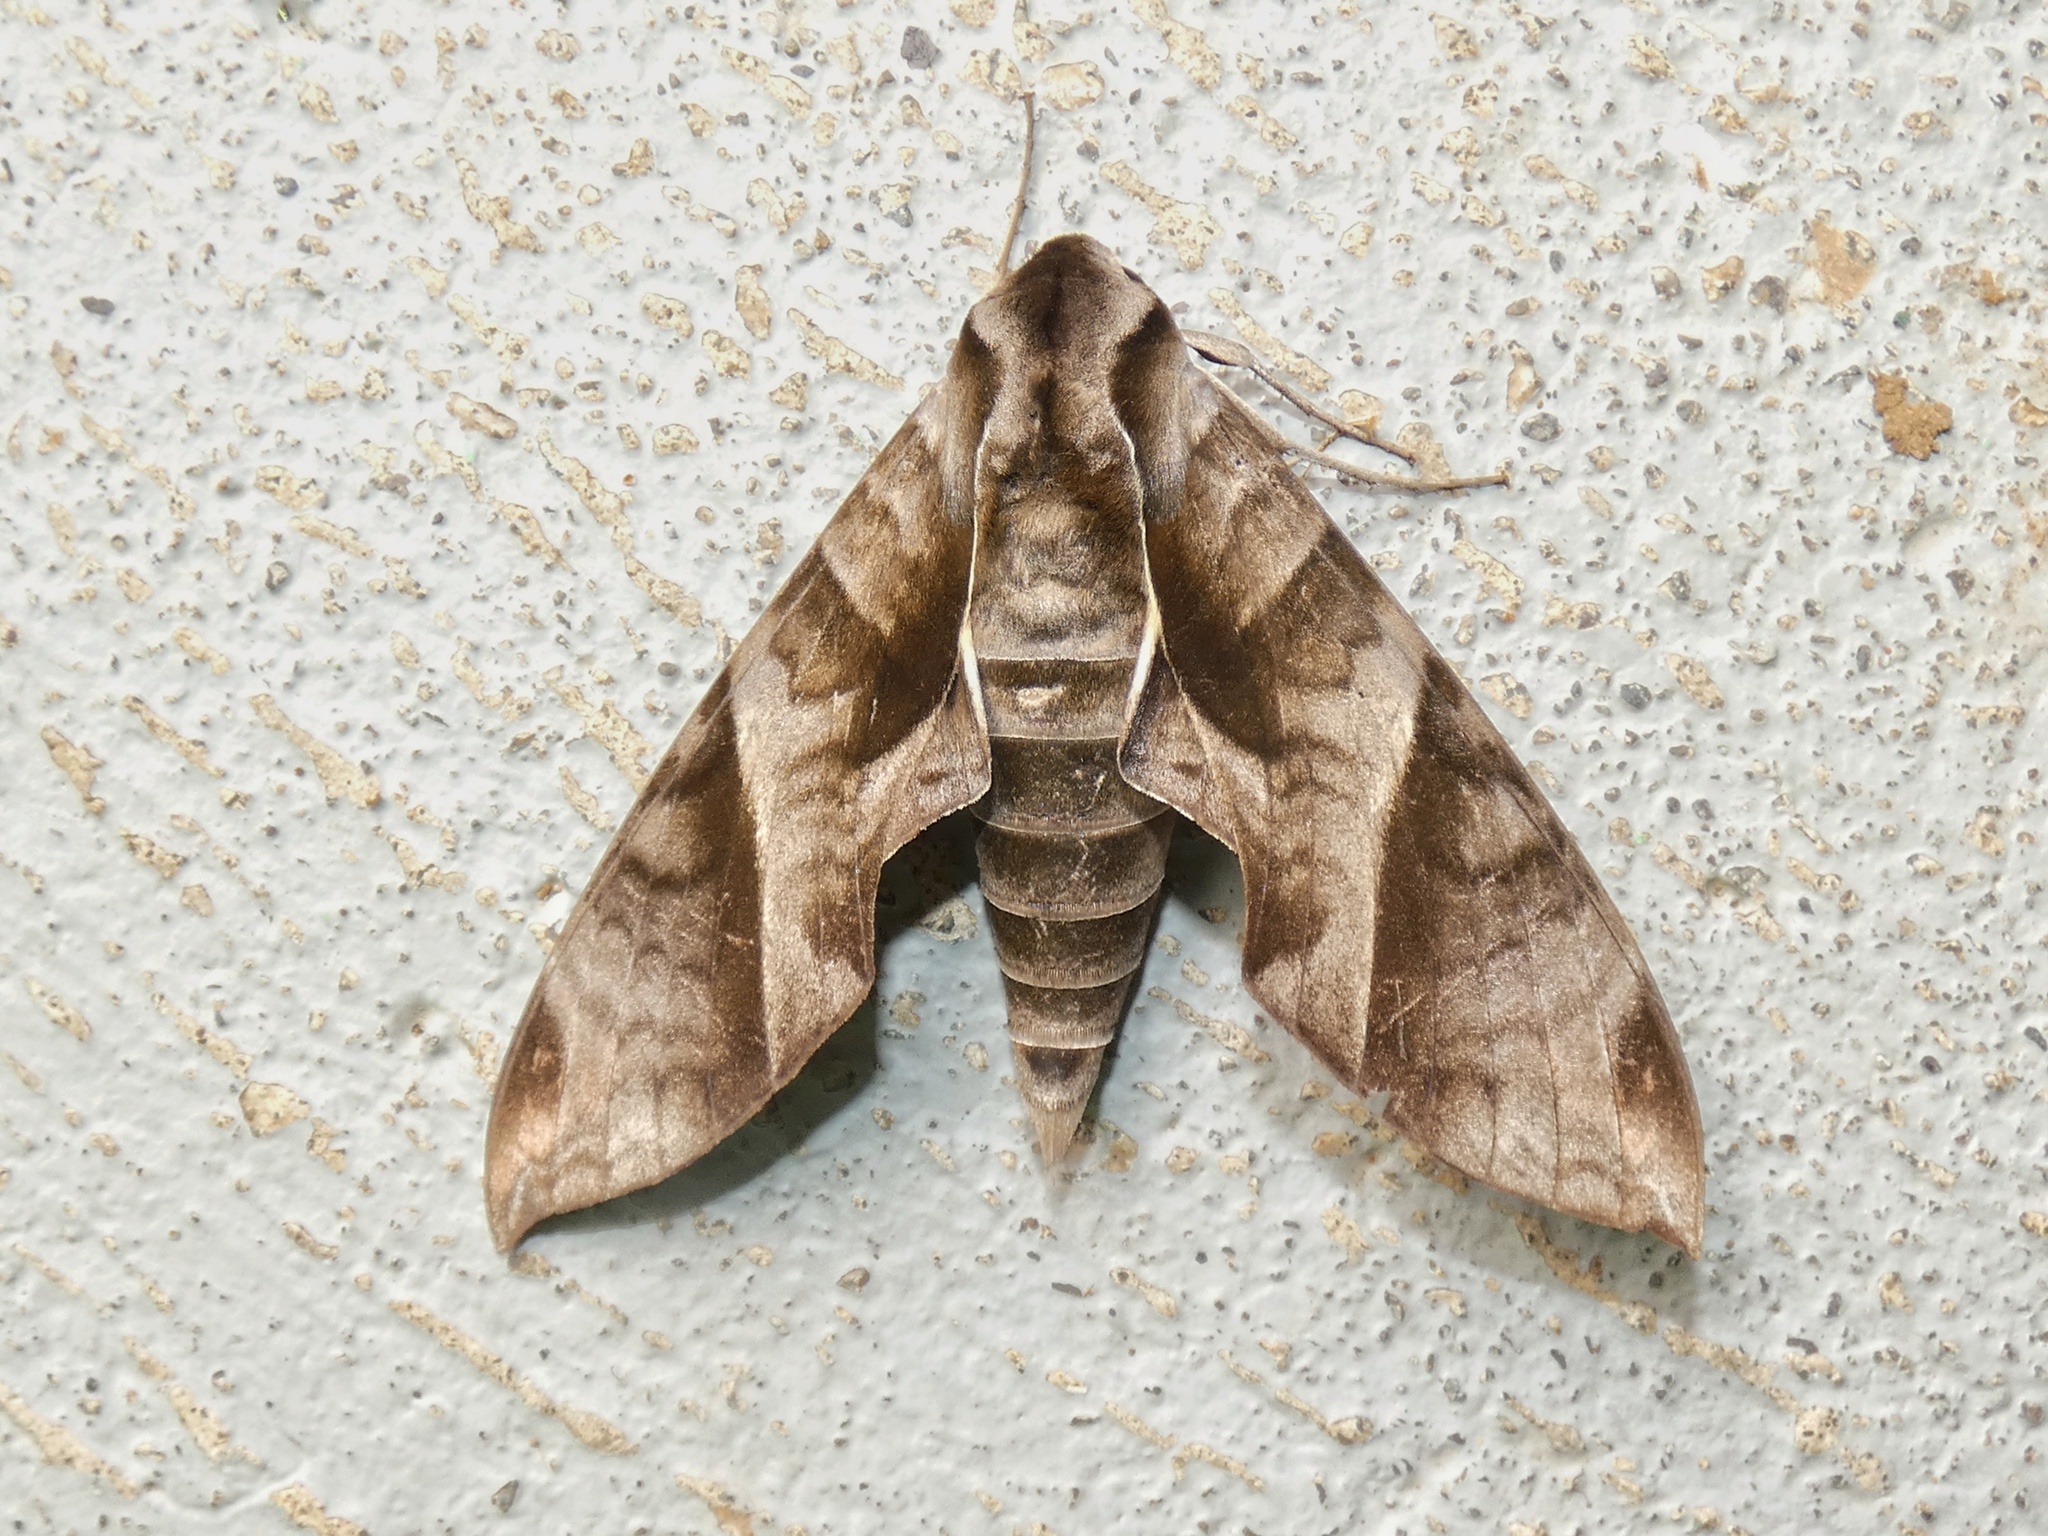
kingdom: Animalia
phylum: Arthropoda
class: Insecta
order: Lepidoptera
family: Sphingidae
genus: Eumorpha
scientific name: Eumorpha anchemolus
